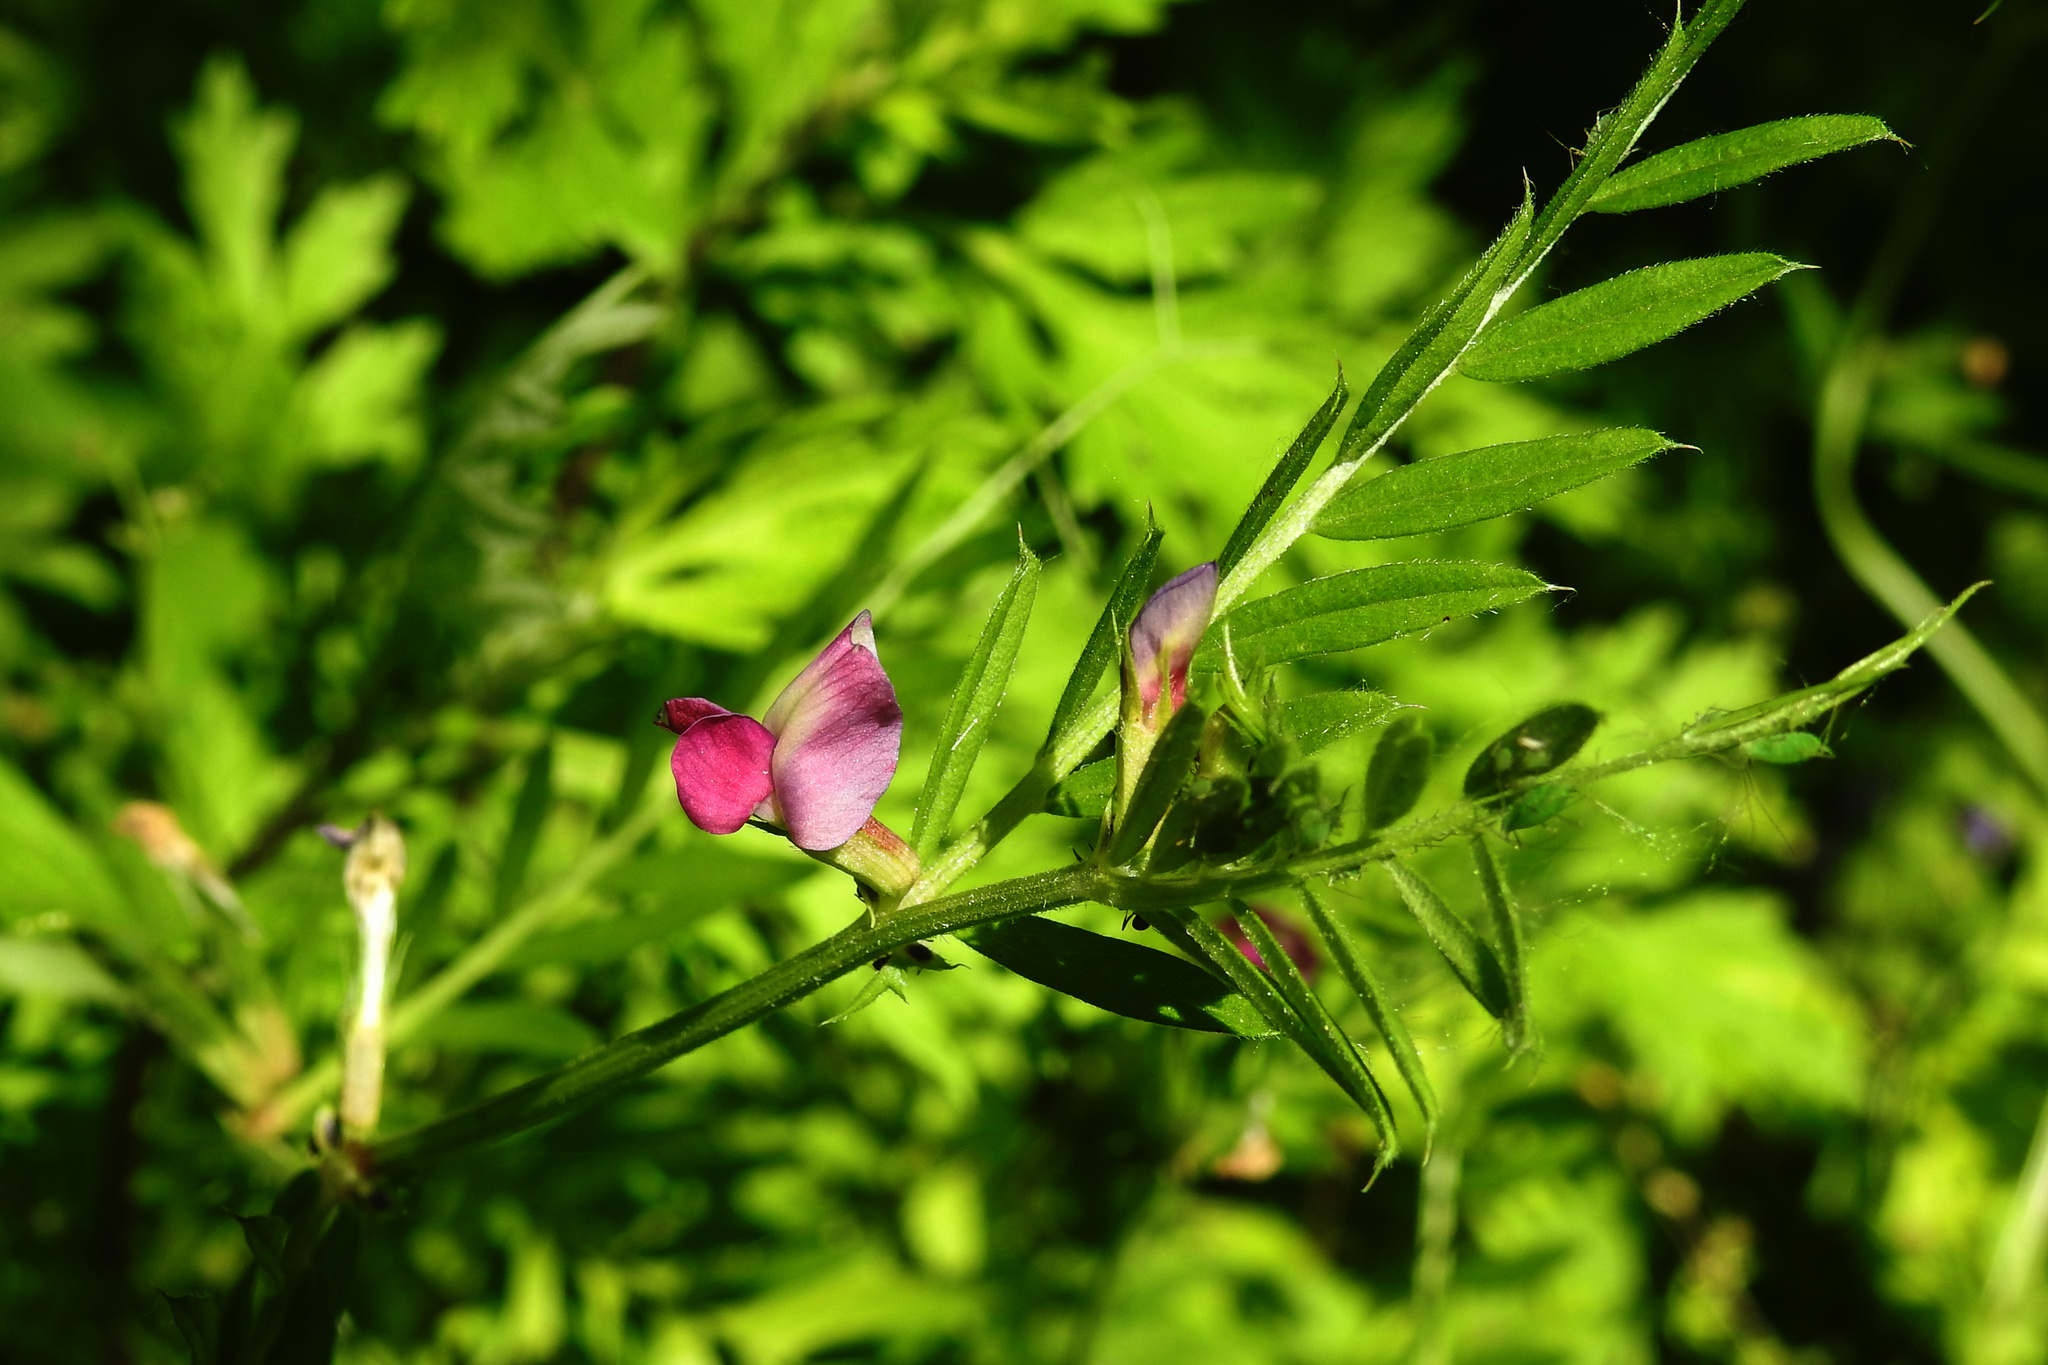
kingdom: Plantae
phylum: Tracheophyta
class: Magnoliopsida
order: Fabales
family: Fabaceae
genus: Vicia
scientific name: Vicia sativa
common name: Garden vetch
